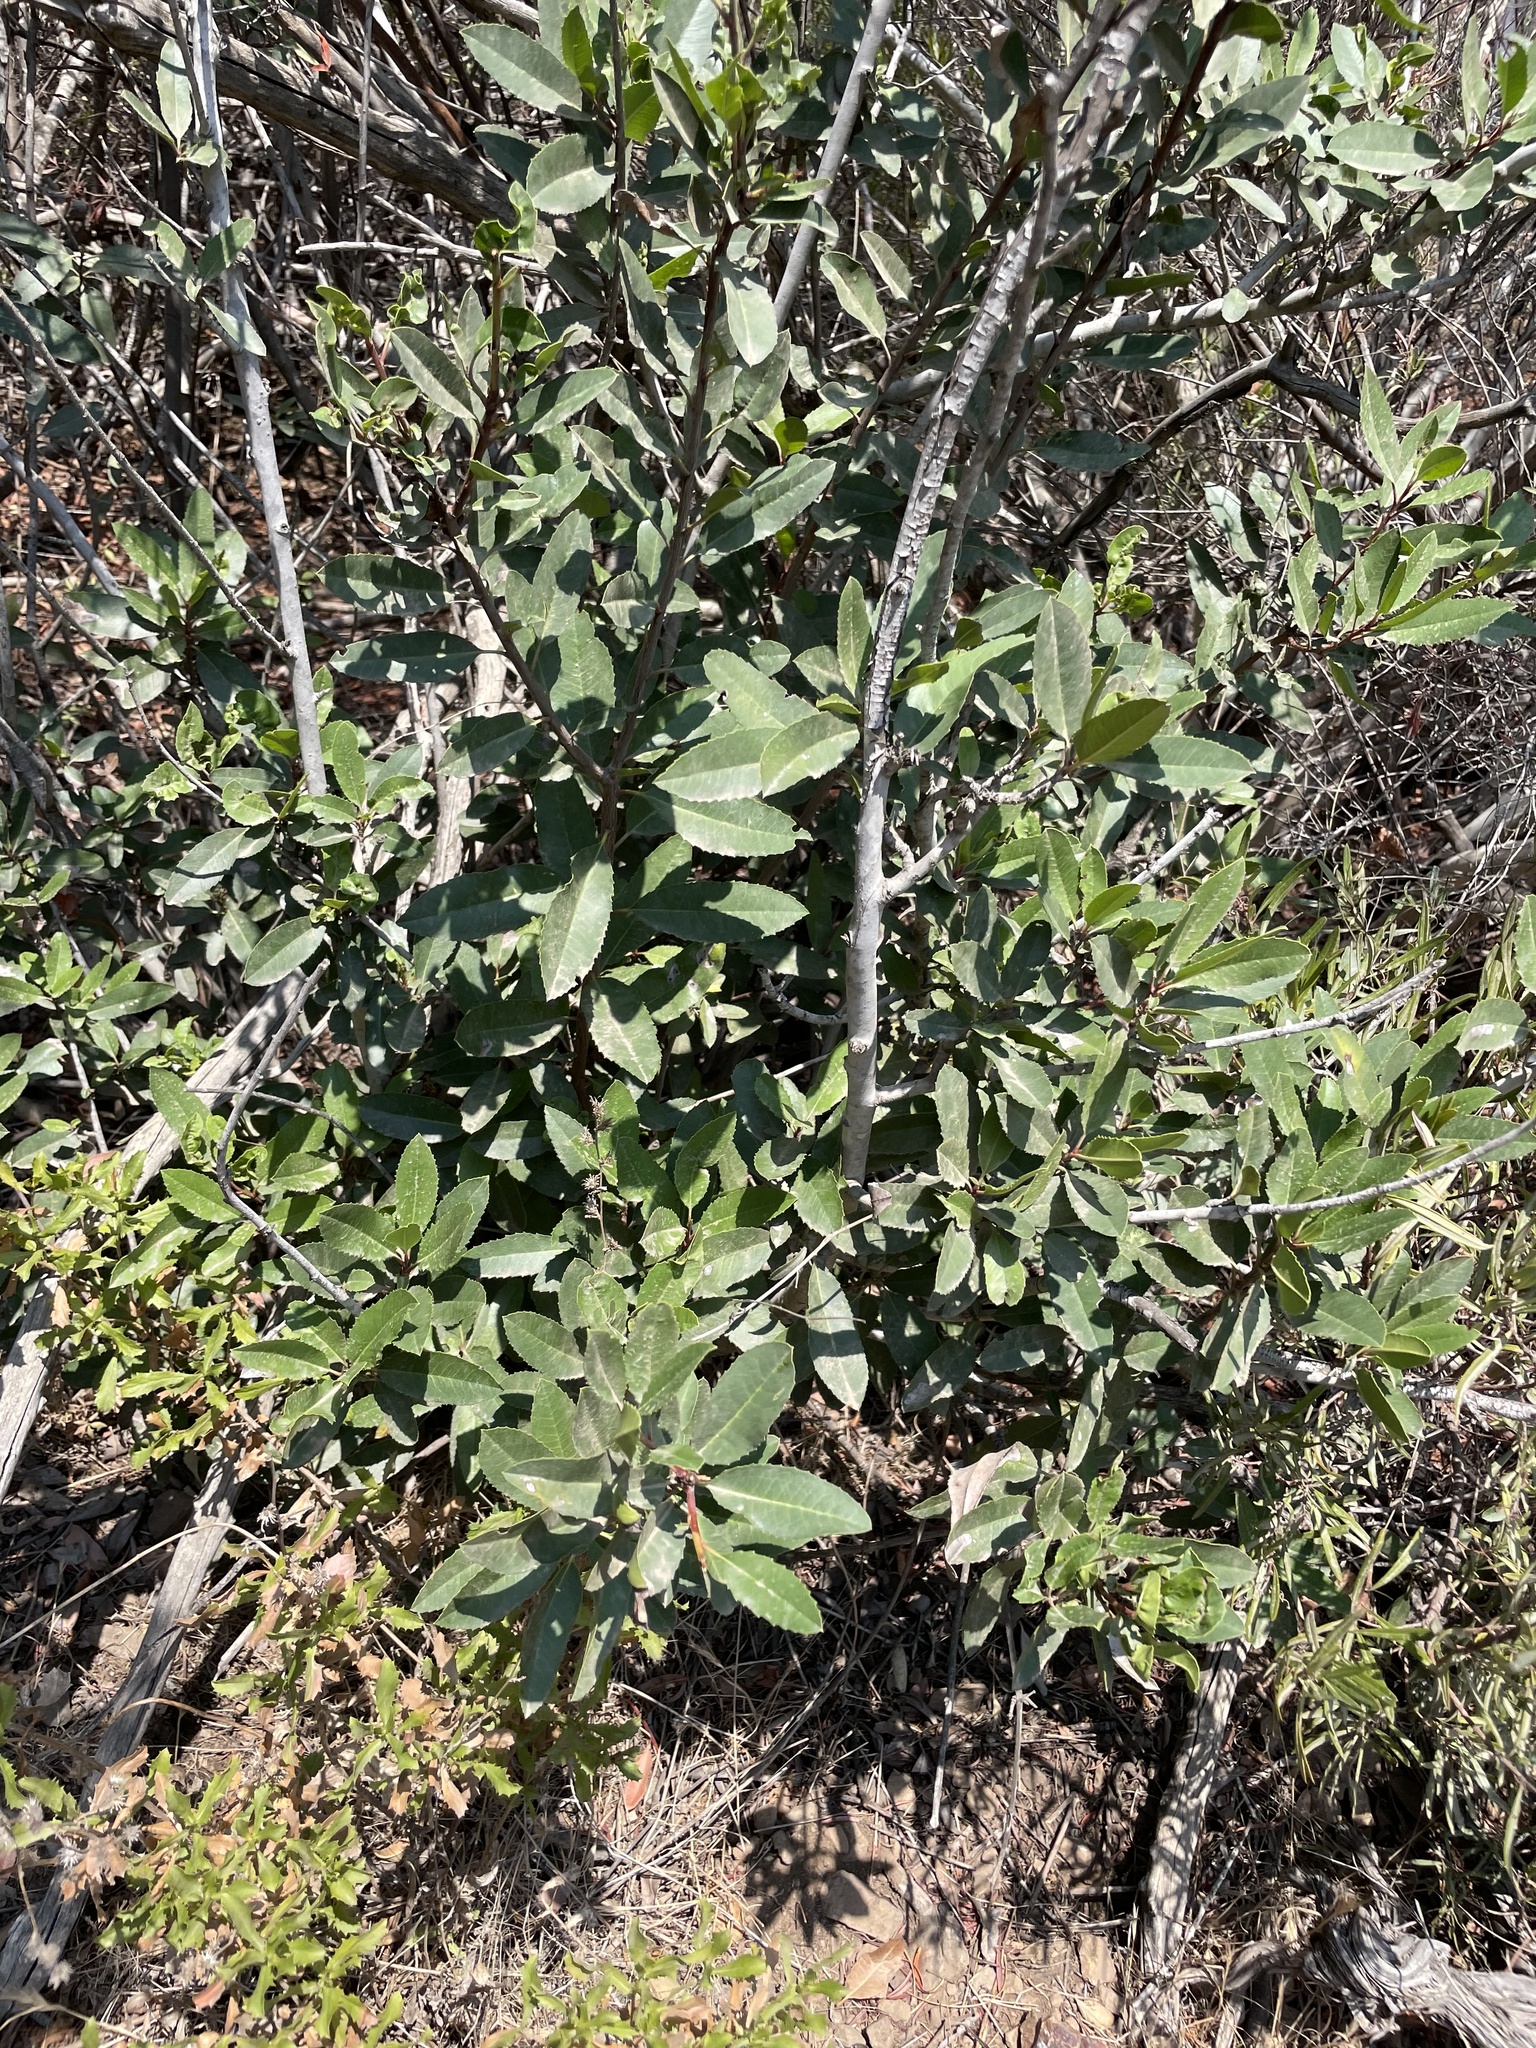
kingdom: Plantae
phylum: Tracheophyta
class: Magnoliopsida
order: Rosales
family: Rosaceae
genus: Heteromeles
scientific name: Heteromeles arbutifolia
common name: California-holly
